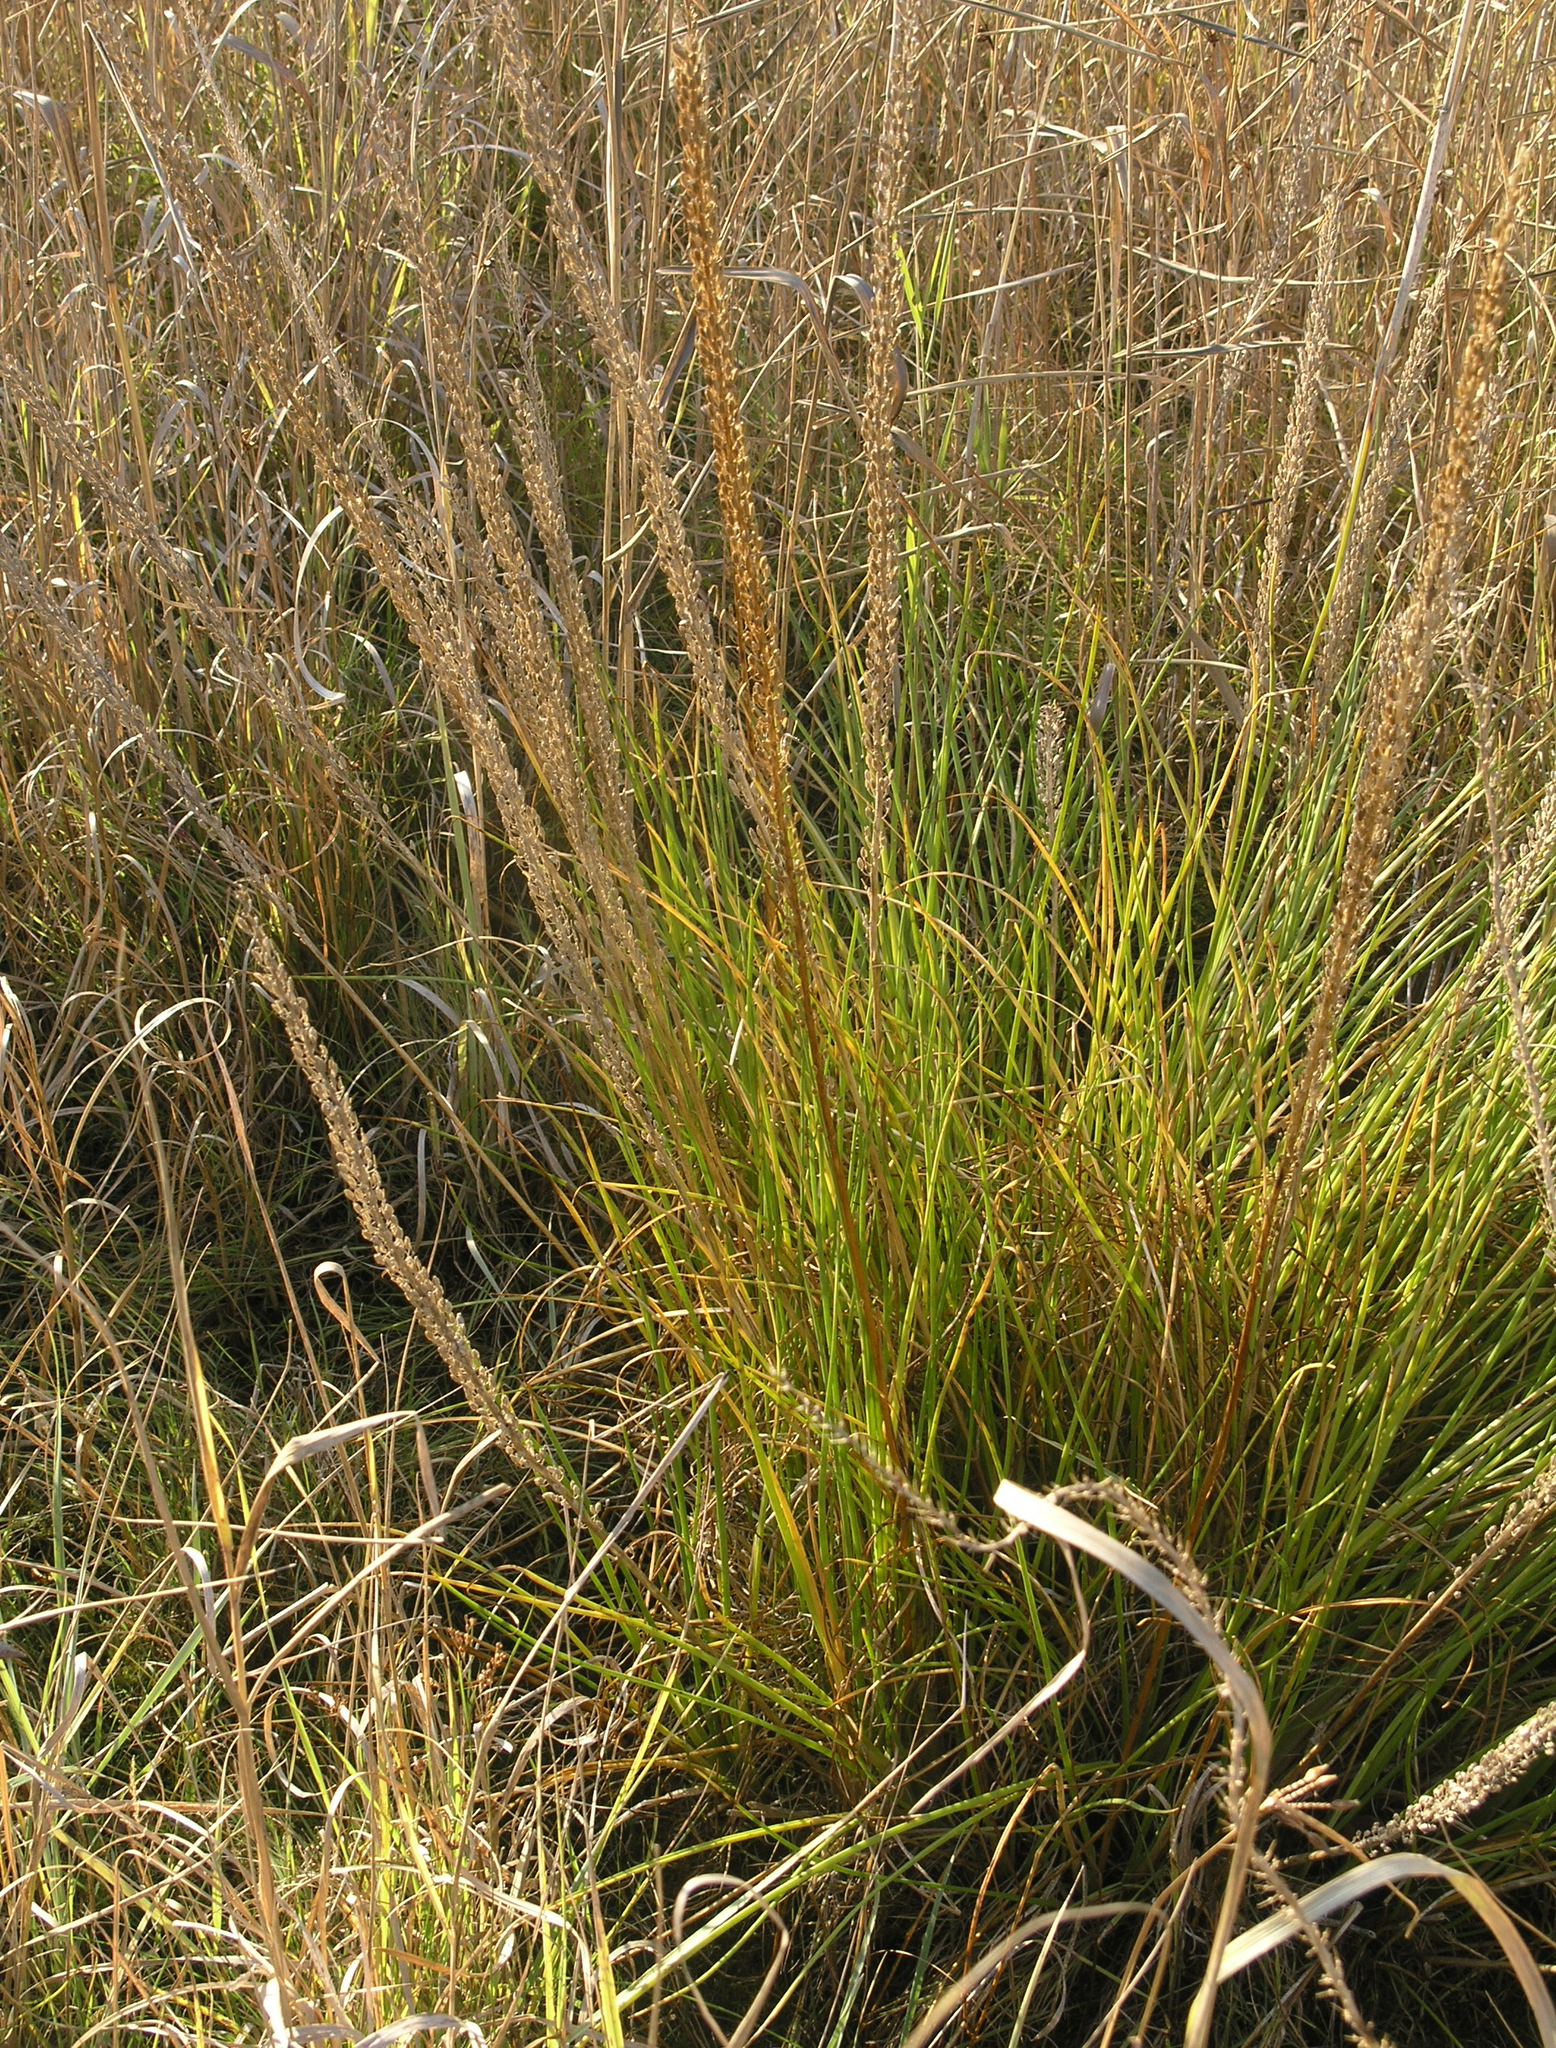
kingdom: Plantae
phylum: Tracheophyta
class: Liliopsida
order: Alismatales
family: Juncaginaceae
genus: Triglochin
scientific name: Triglochin maritima
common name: Sea arrowgrass
